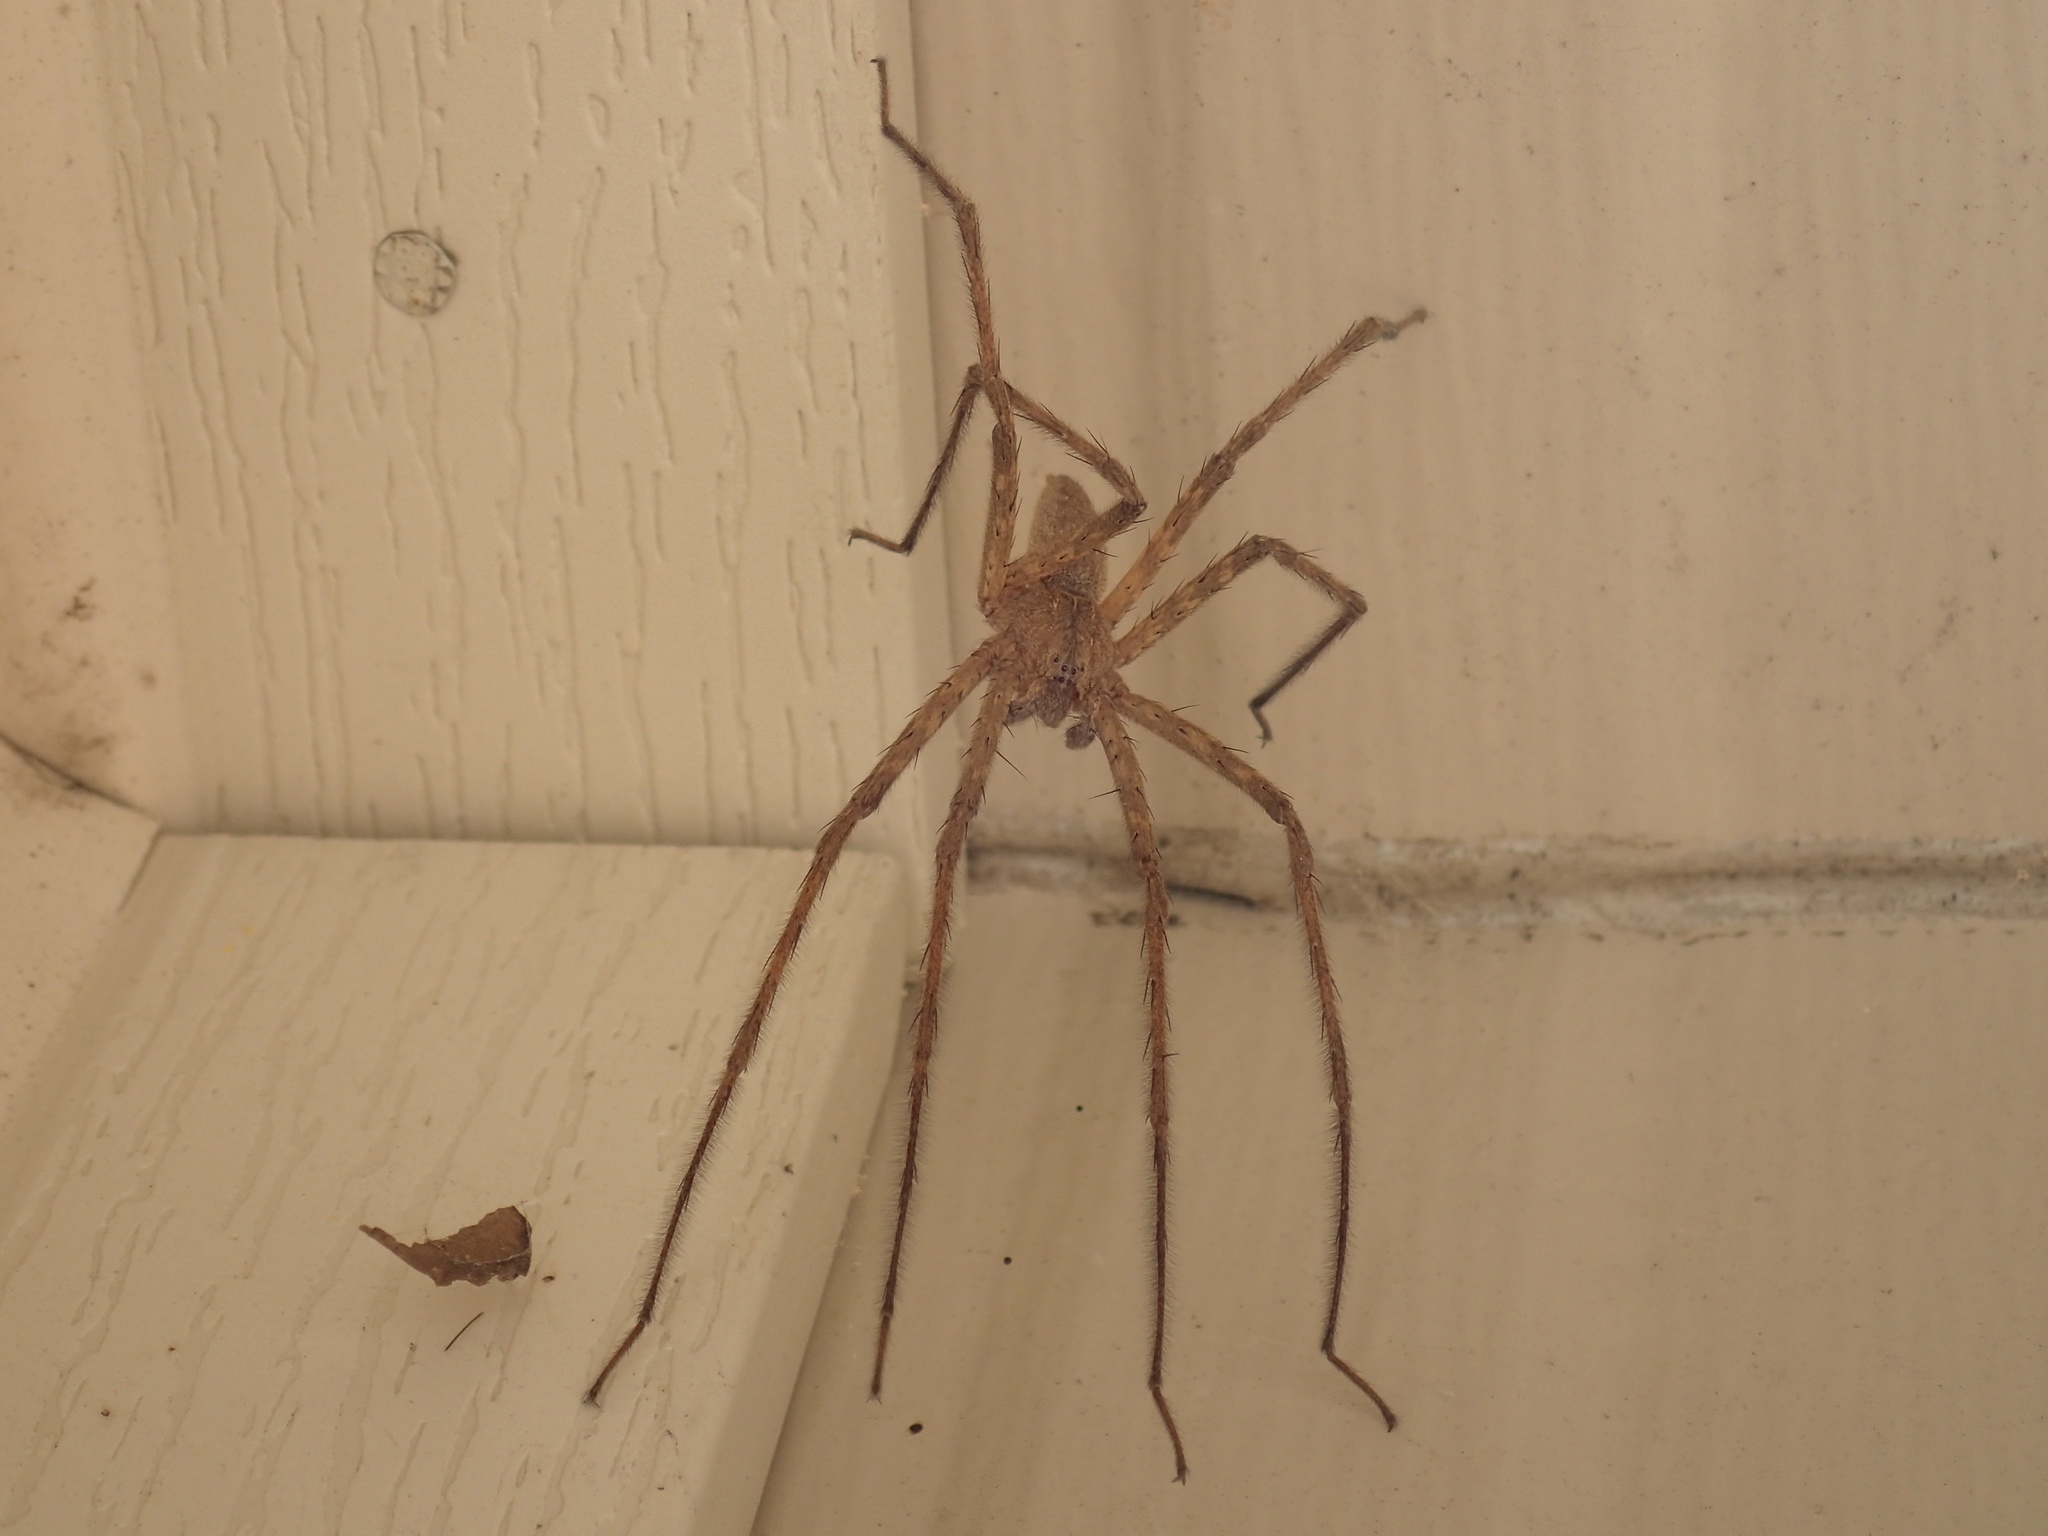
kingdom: Animalia
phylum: Arthropoda
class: Arachnida
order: Araneae
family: Pisauridae
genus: Pisaurina
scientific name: Pisaurina mira
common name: American nursery web spider
